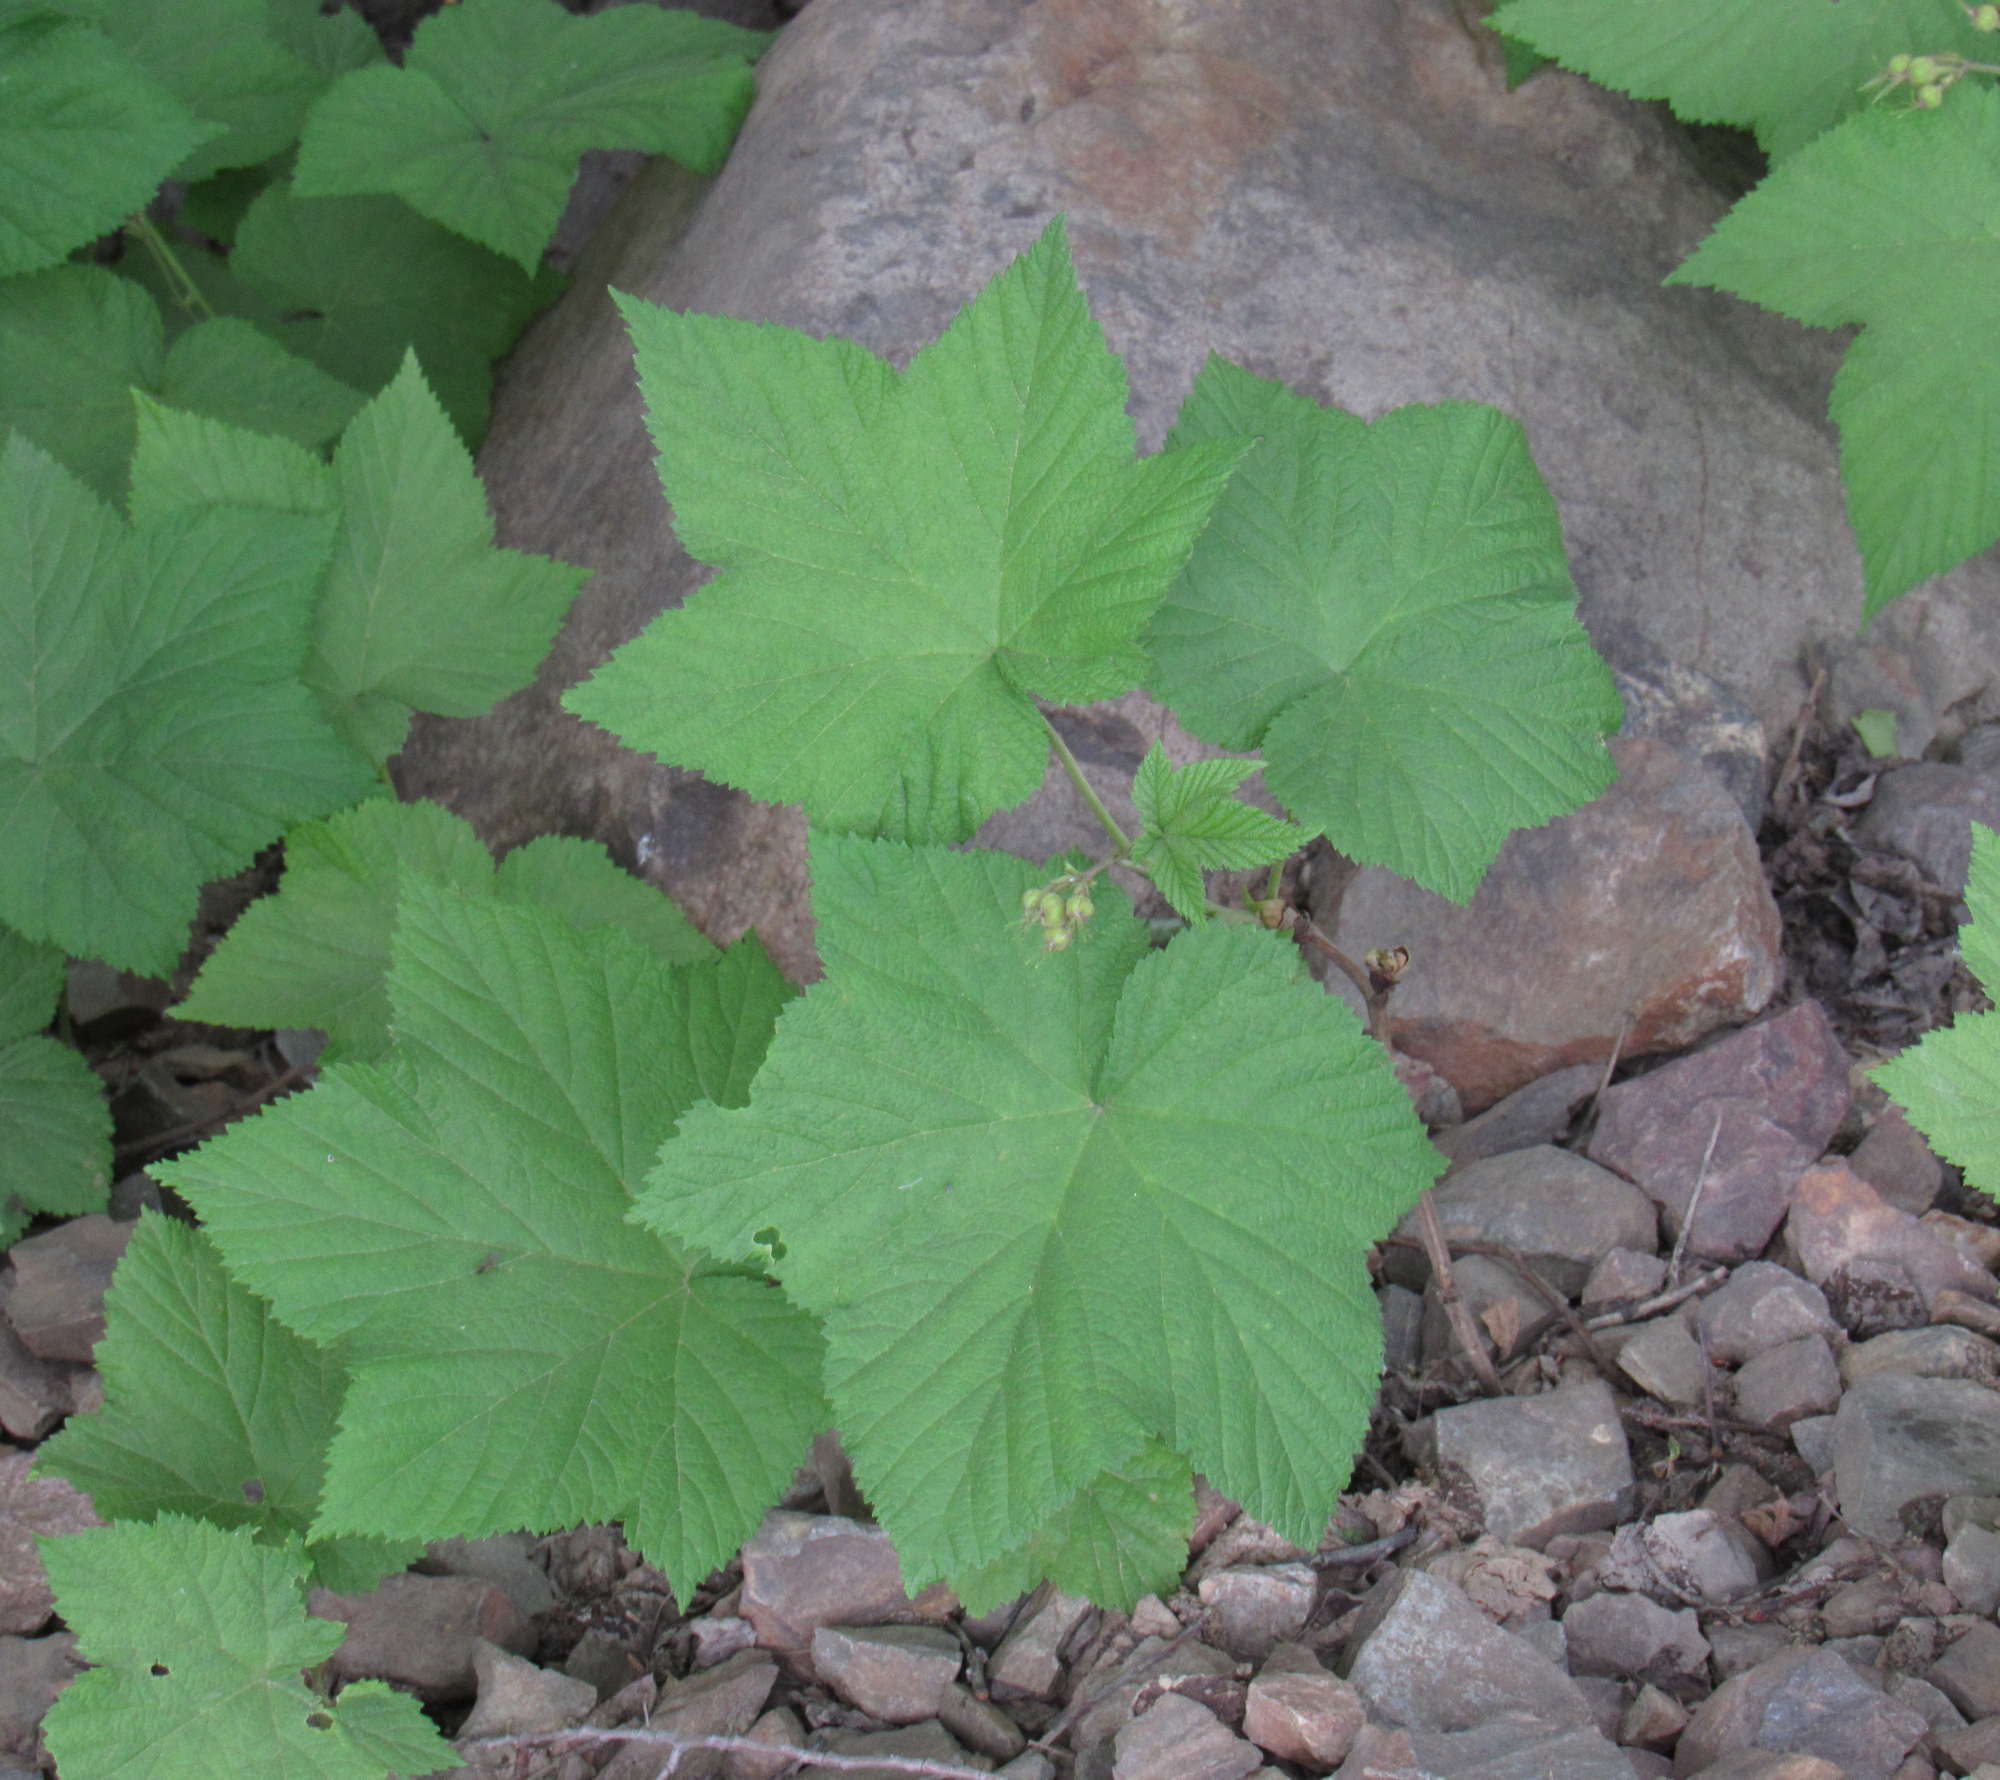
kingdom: Plantae
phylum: Tracheophyta
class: Magnoliopsida
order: Rosales
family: Rosaceae
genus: Rubus
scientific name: Rubus parviflorus
